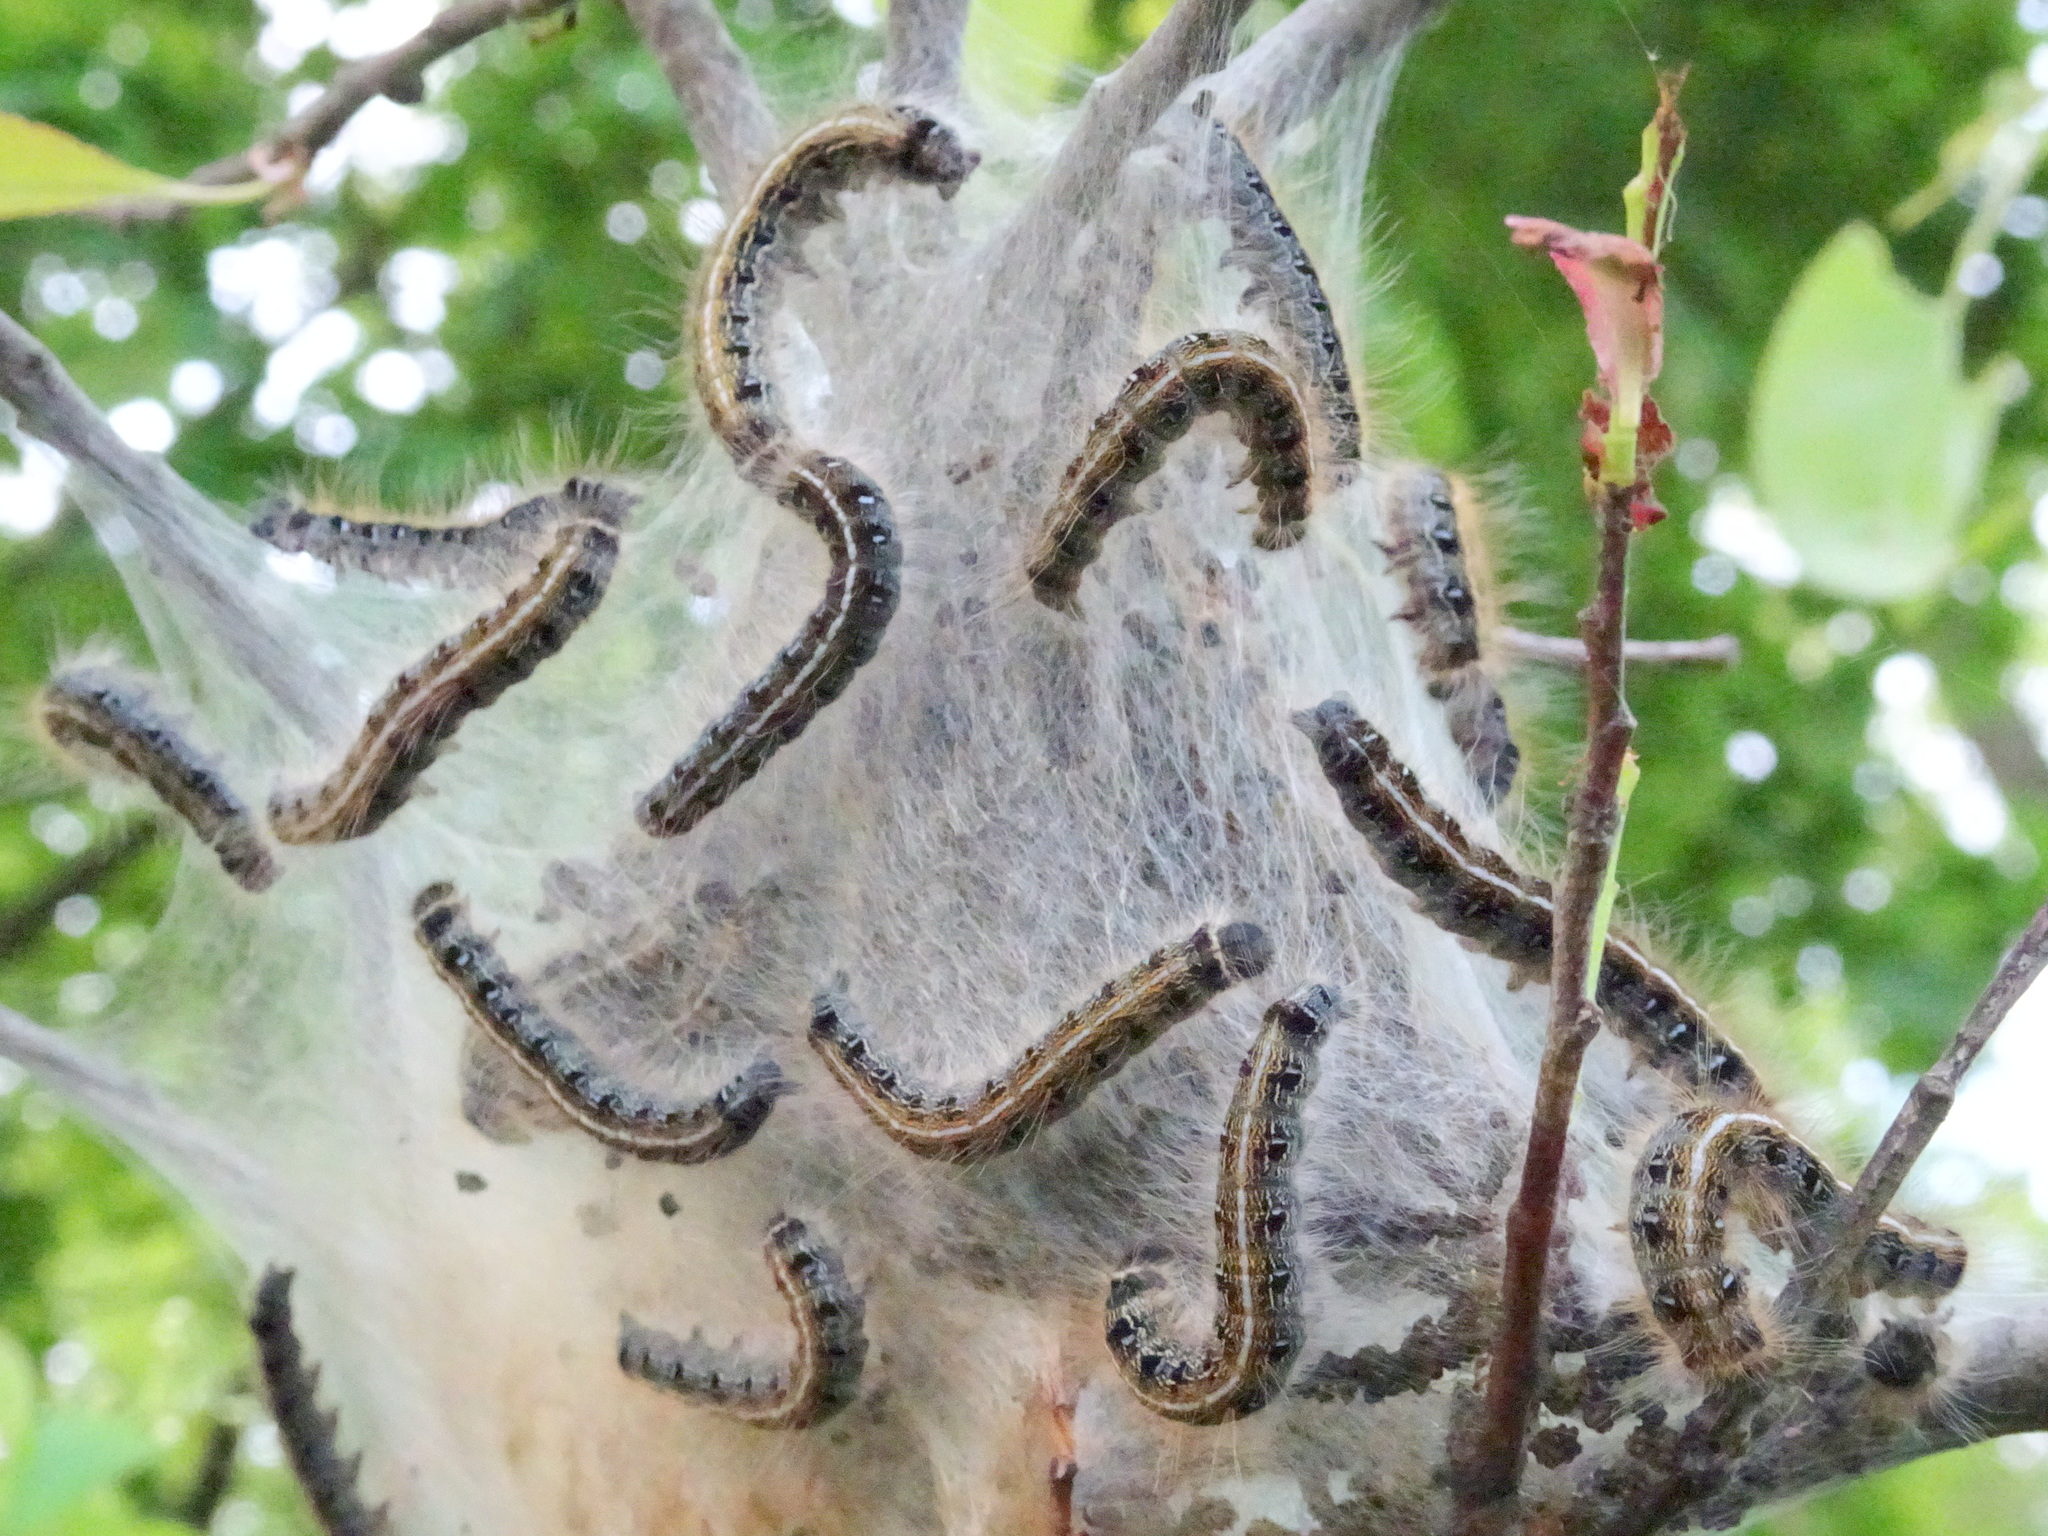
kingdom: Animalia
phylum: Arthropoda
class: Insecta
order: Lepidoptera
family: Lasiocampidae
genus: Malacosoma
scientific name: Malacosoma americana
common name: Eastern tent caterpillar moth
